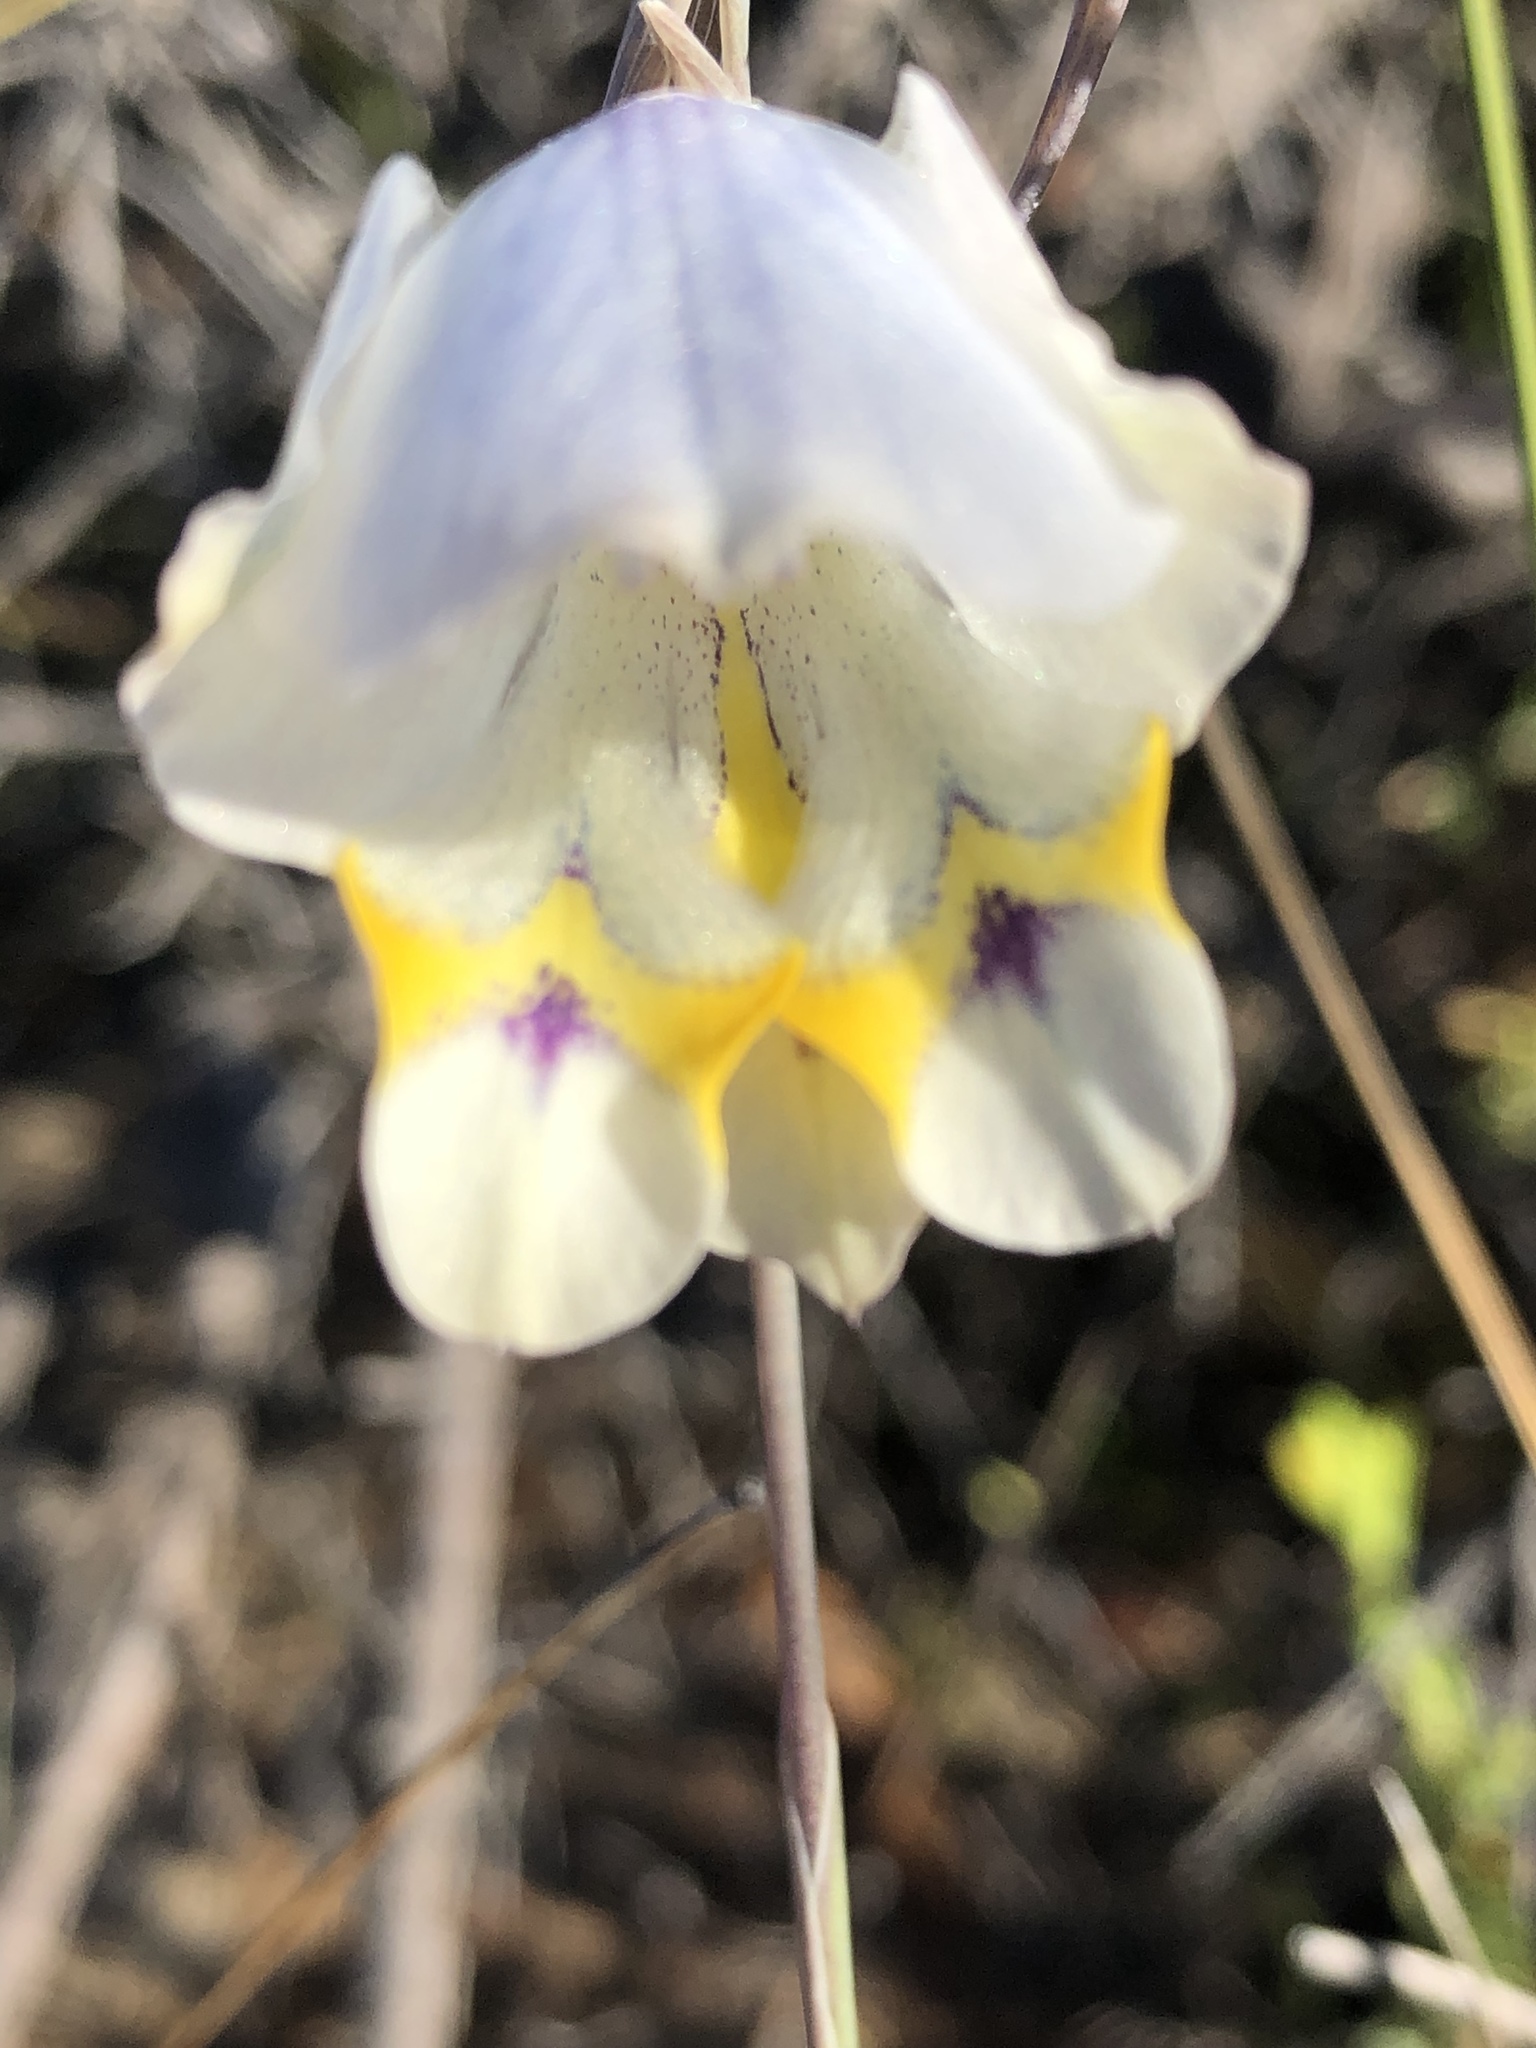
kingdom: Plantae
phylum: Tracheophyta
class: Liliopsida
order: Asparagales
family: Iridaceae
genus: Gladiolus
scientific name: Gladiolus patersoniae
